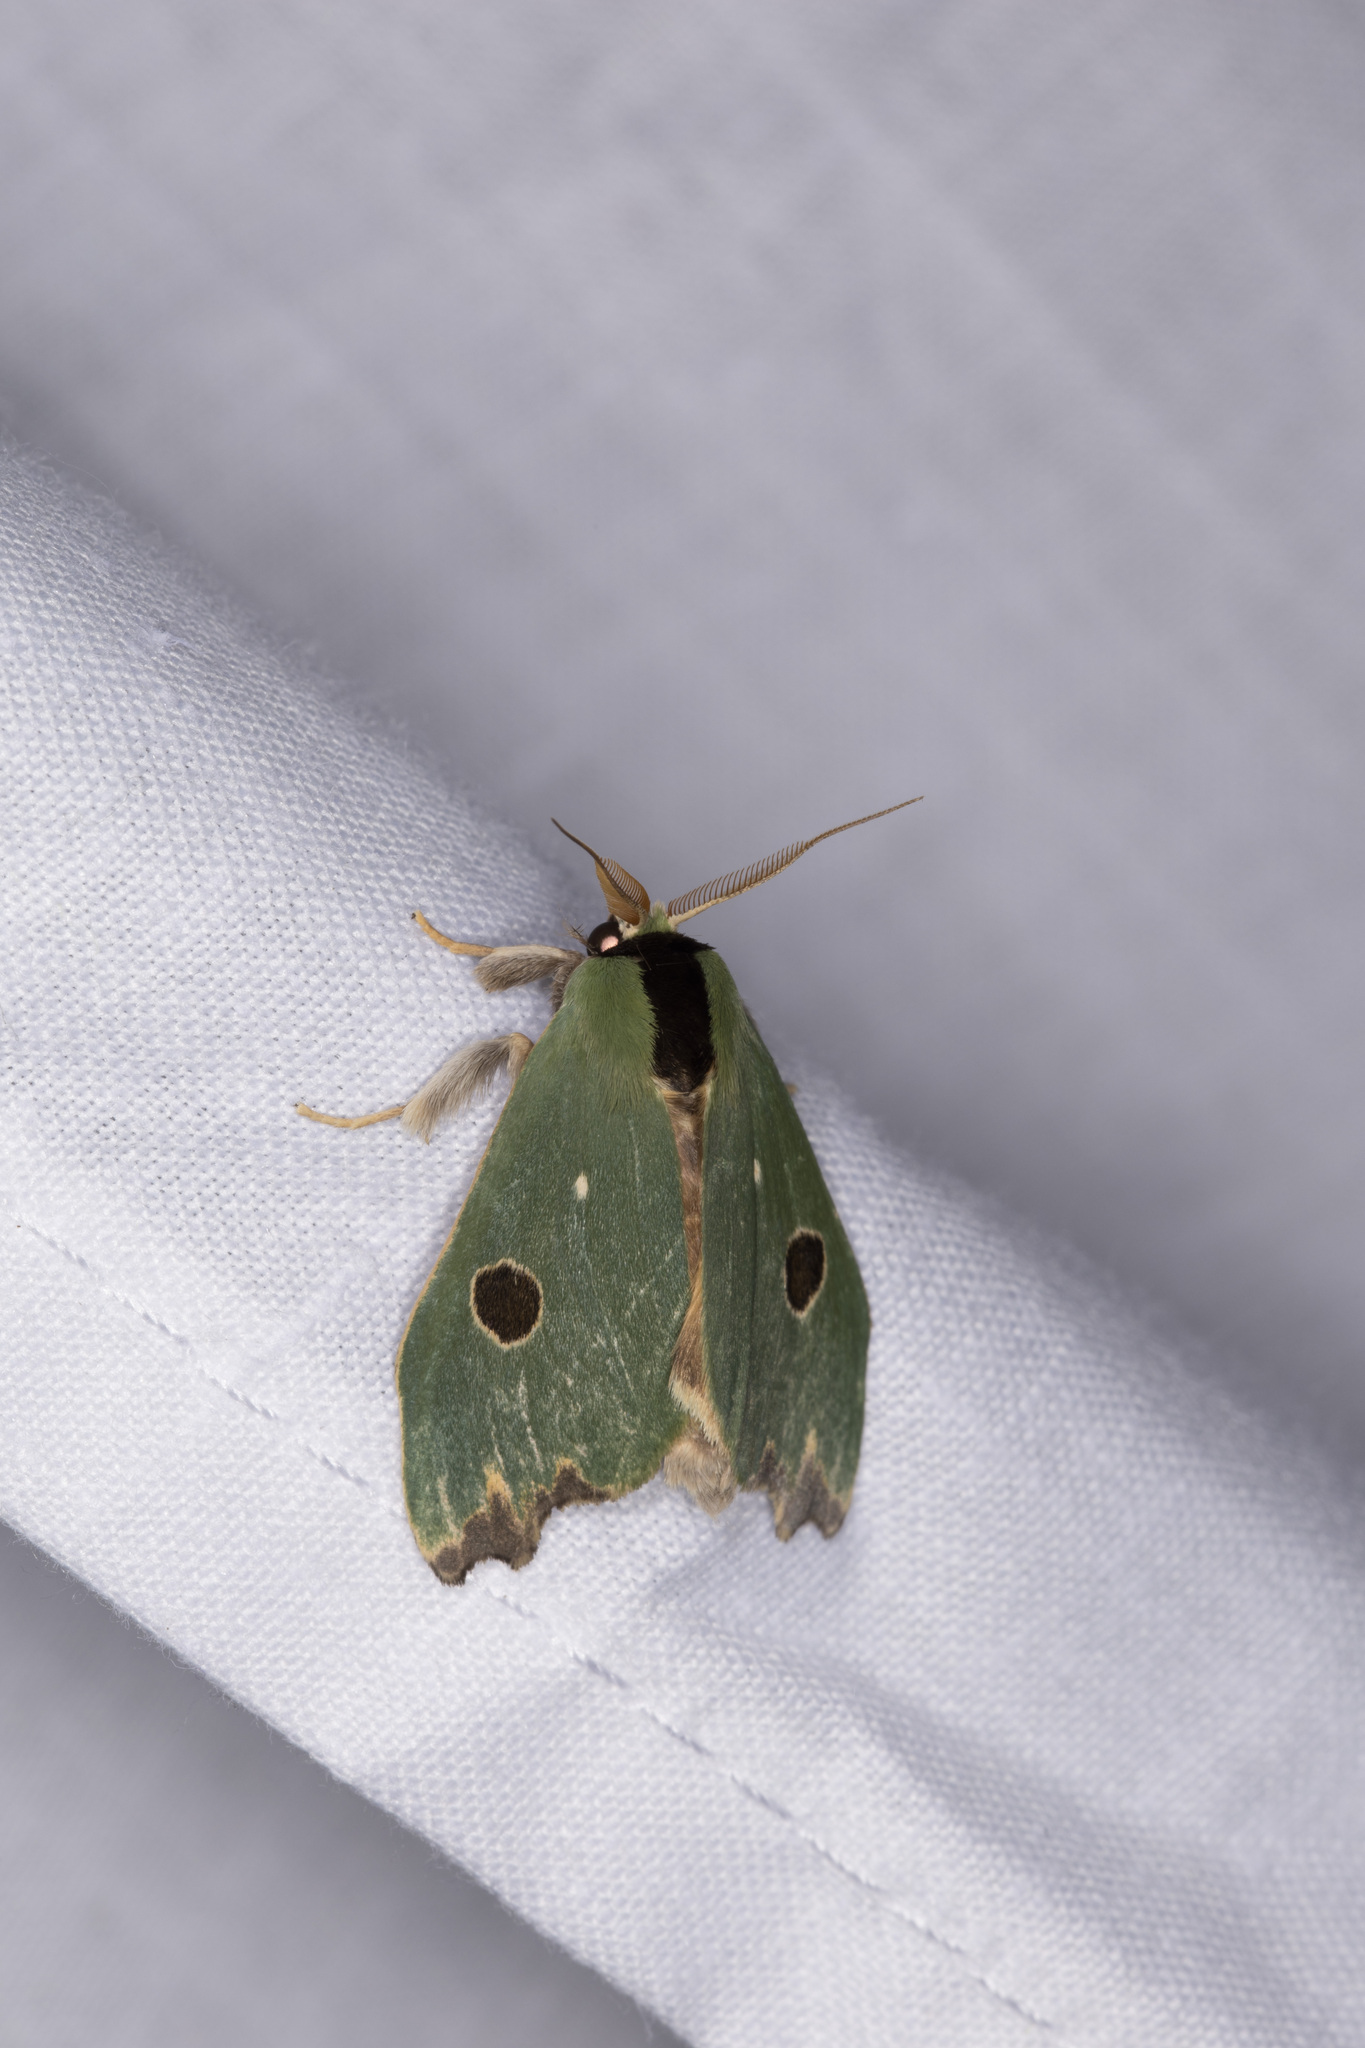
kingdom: Animalia
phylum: Arthropoda
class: Insecta
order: Lepidoptera
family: Notodontidae
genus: Rosema
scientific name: Rosema deolis
